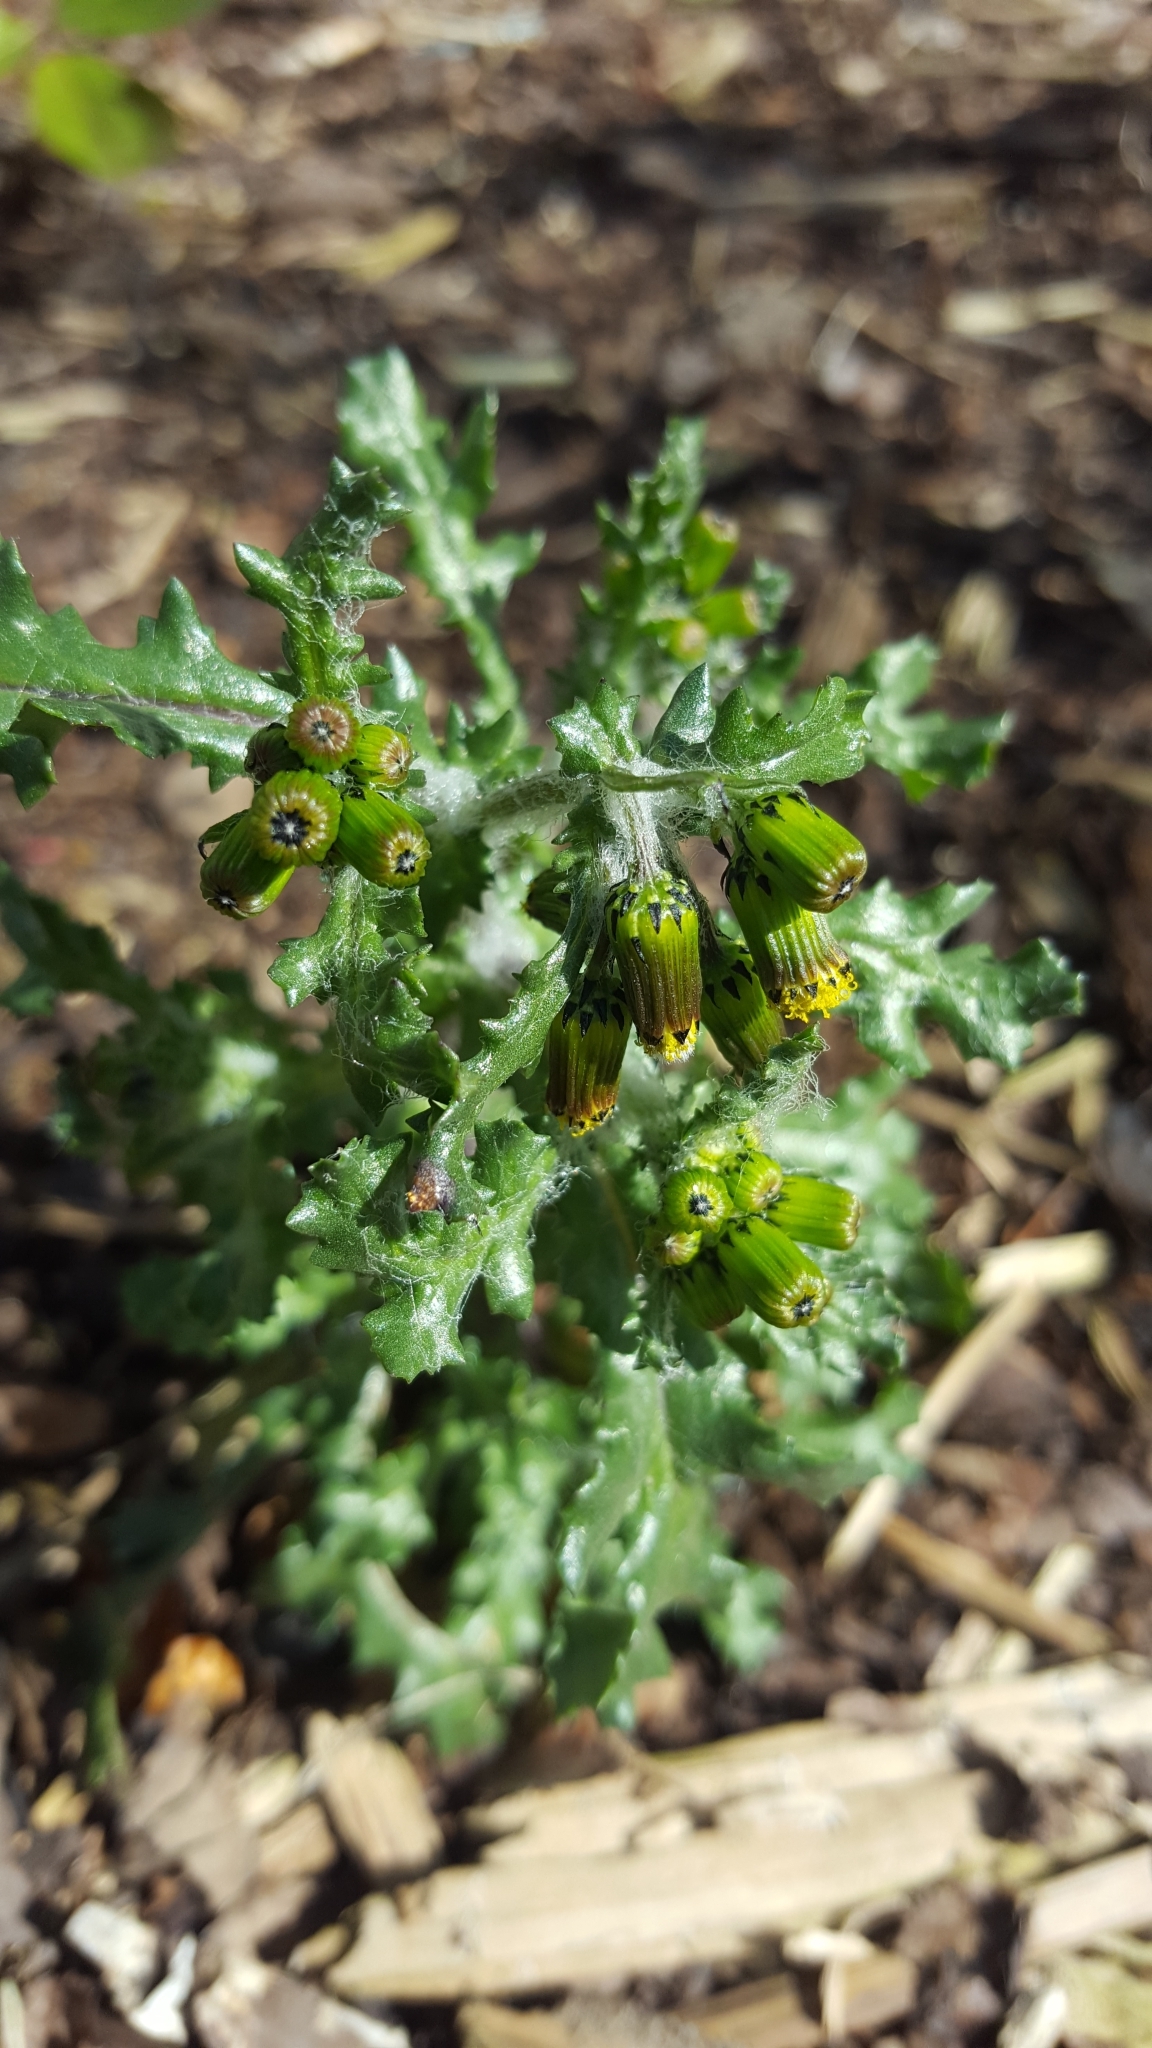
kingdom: Fungi
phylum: Basidiomycota
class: Pucciniomycetes
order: Pucciniales
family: Pucciniaceae
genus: Puccinia
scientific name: Puccinia lagenophorae
